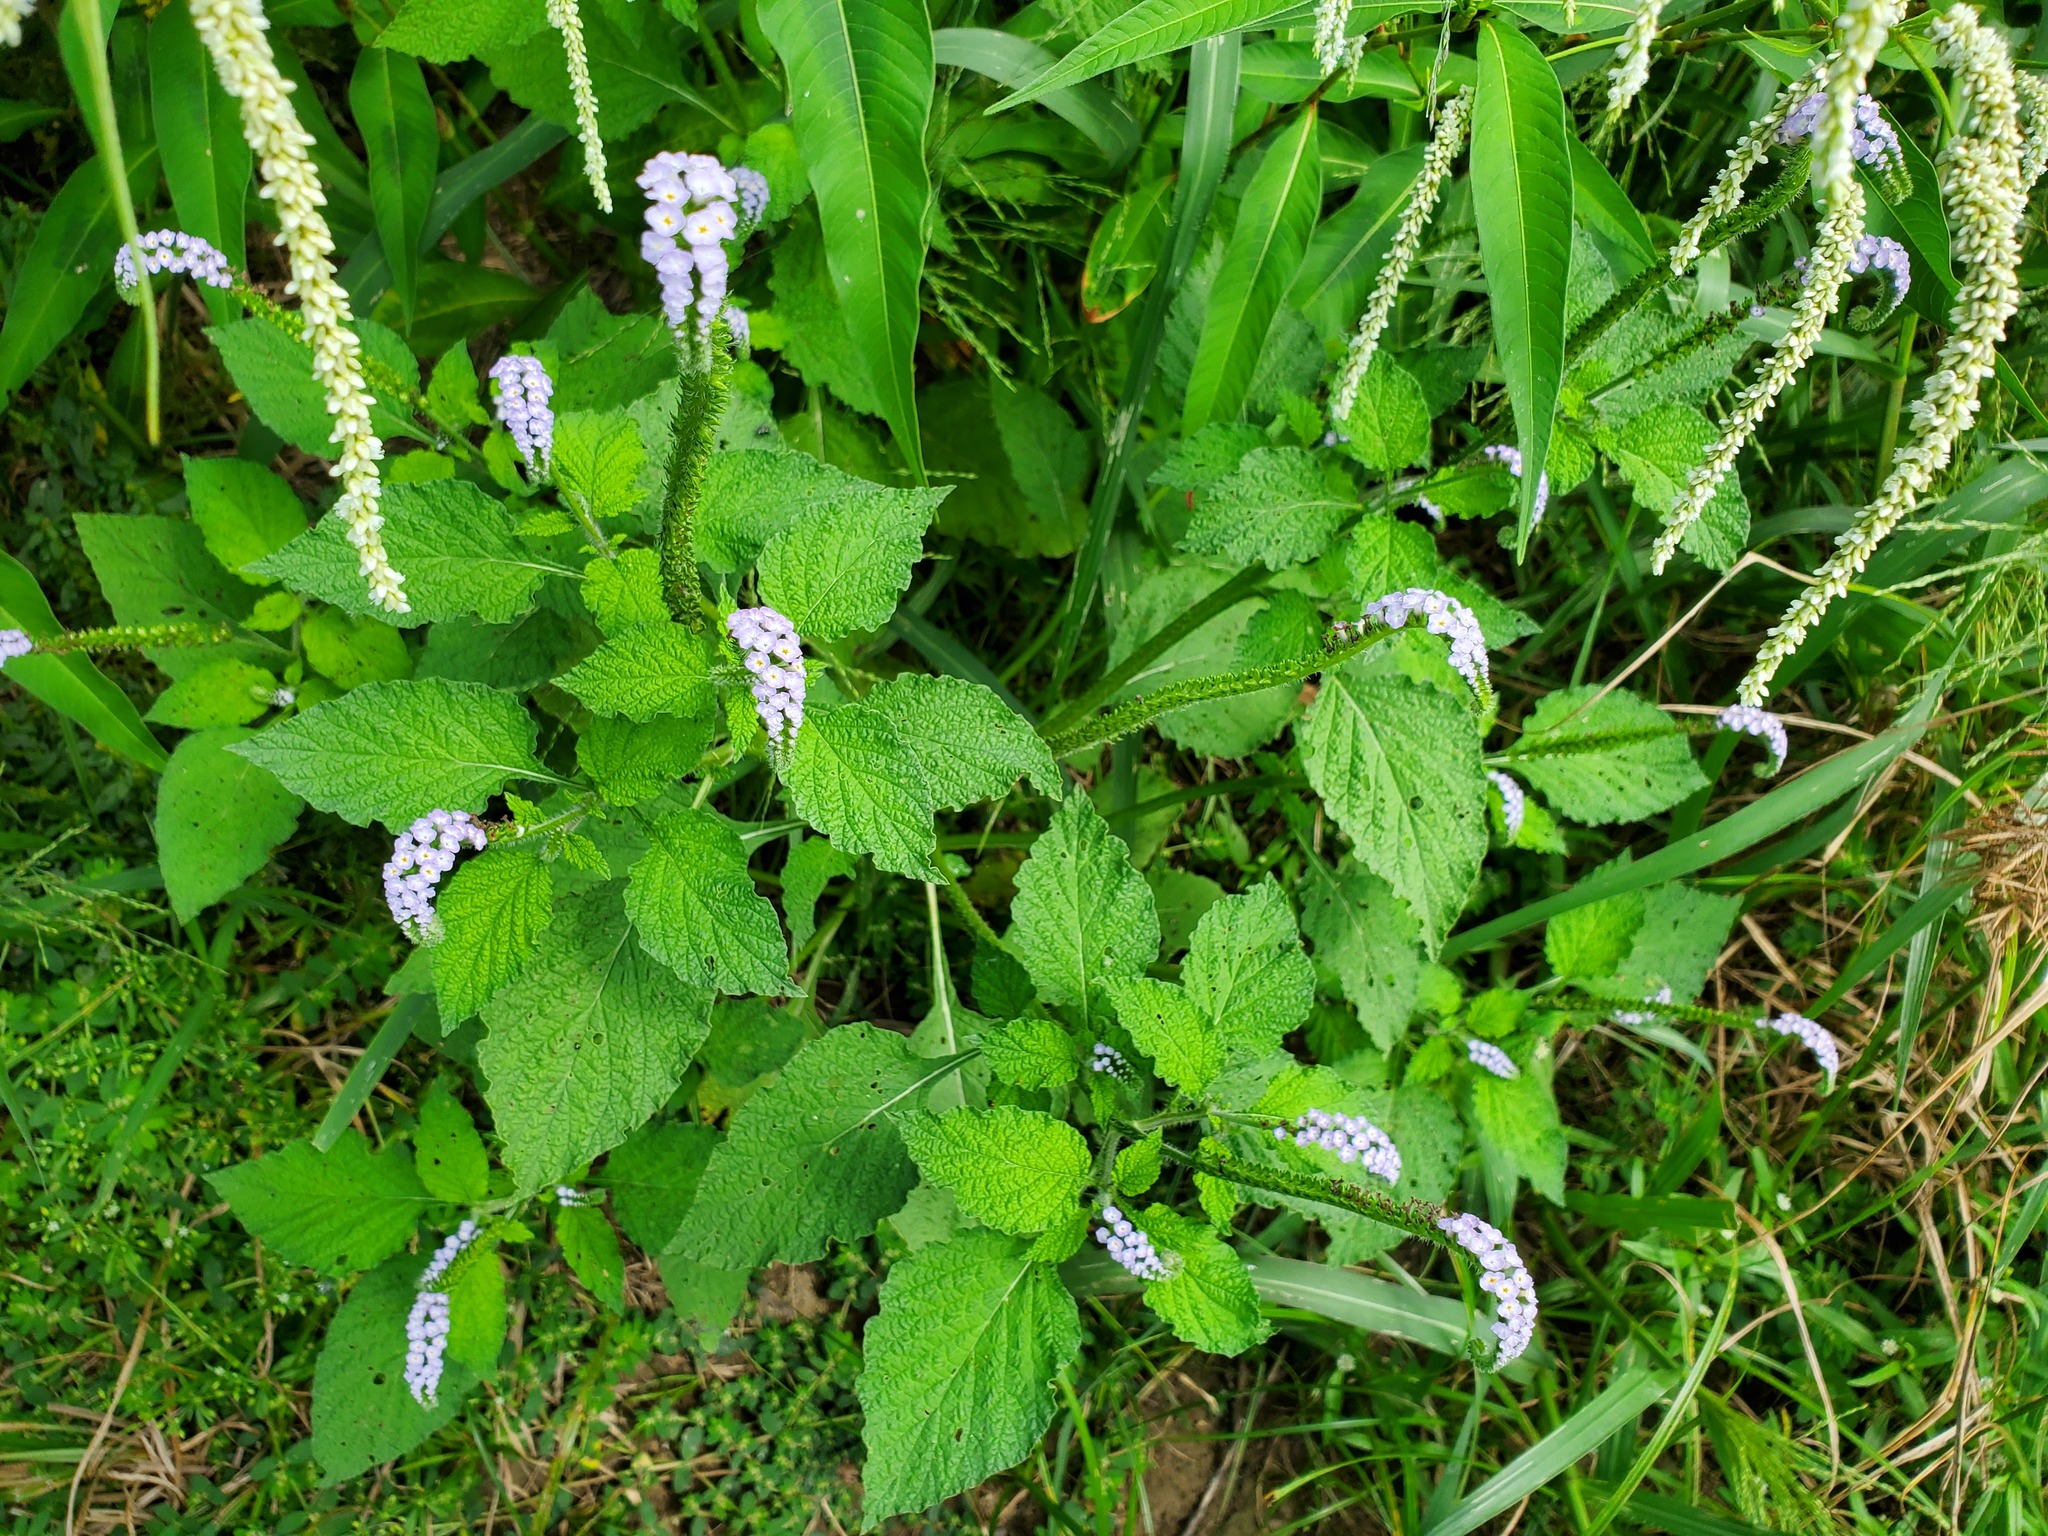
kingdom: Plantae
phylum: Tracheophyta
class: Magnoliopsida
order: Boraginales
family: Heliotropiaceae
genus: Heliotropium
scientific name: Heliotropium indicum
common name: Indian heliotrope
